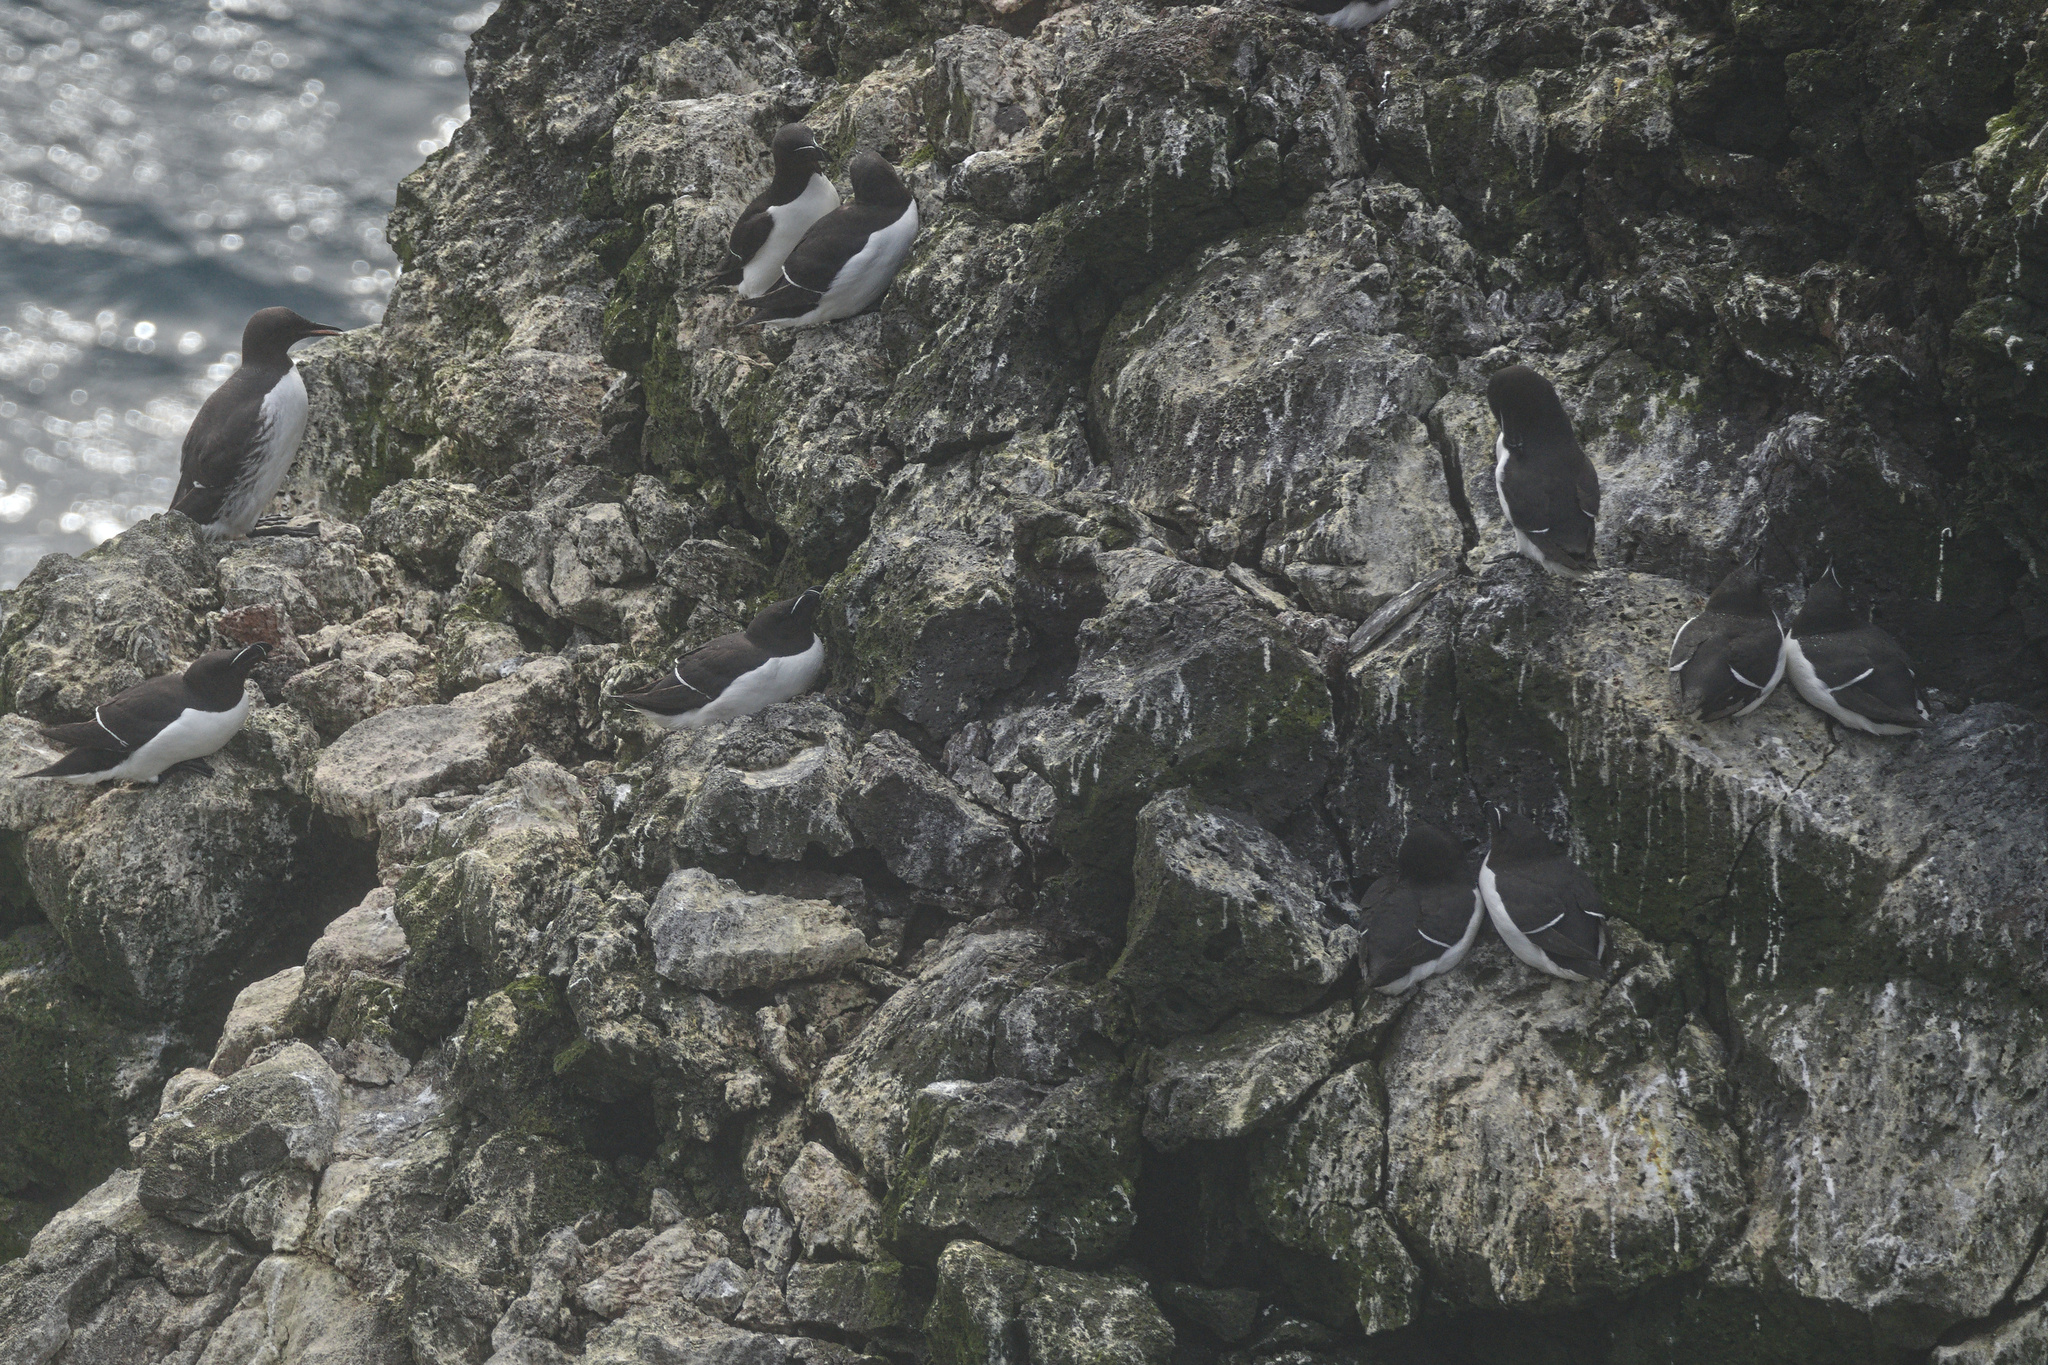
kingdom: Animalia
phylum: Chordata
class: Aves
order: Charadriiformes
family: Alcidae
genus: Alca
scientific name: Alca torda
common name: Razorbill
